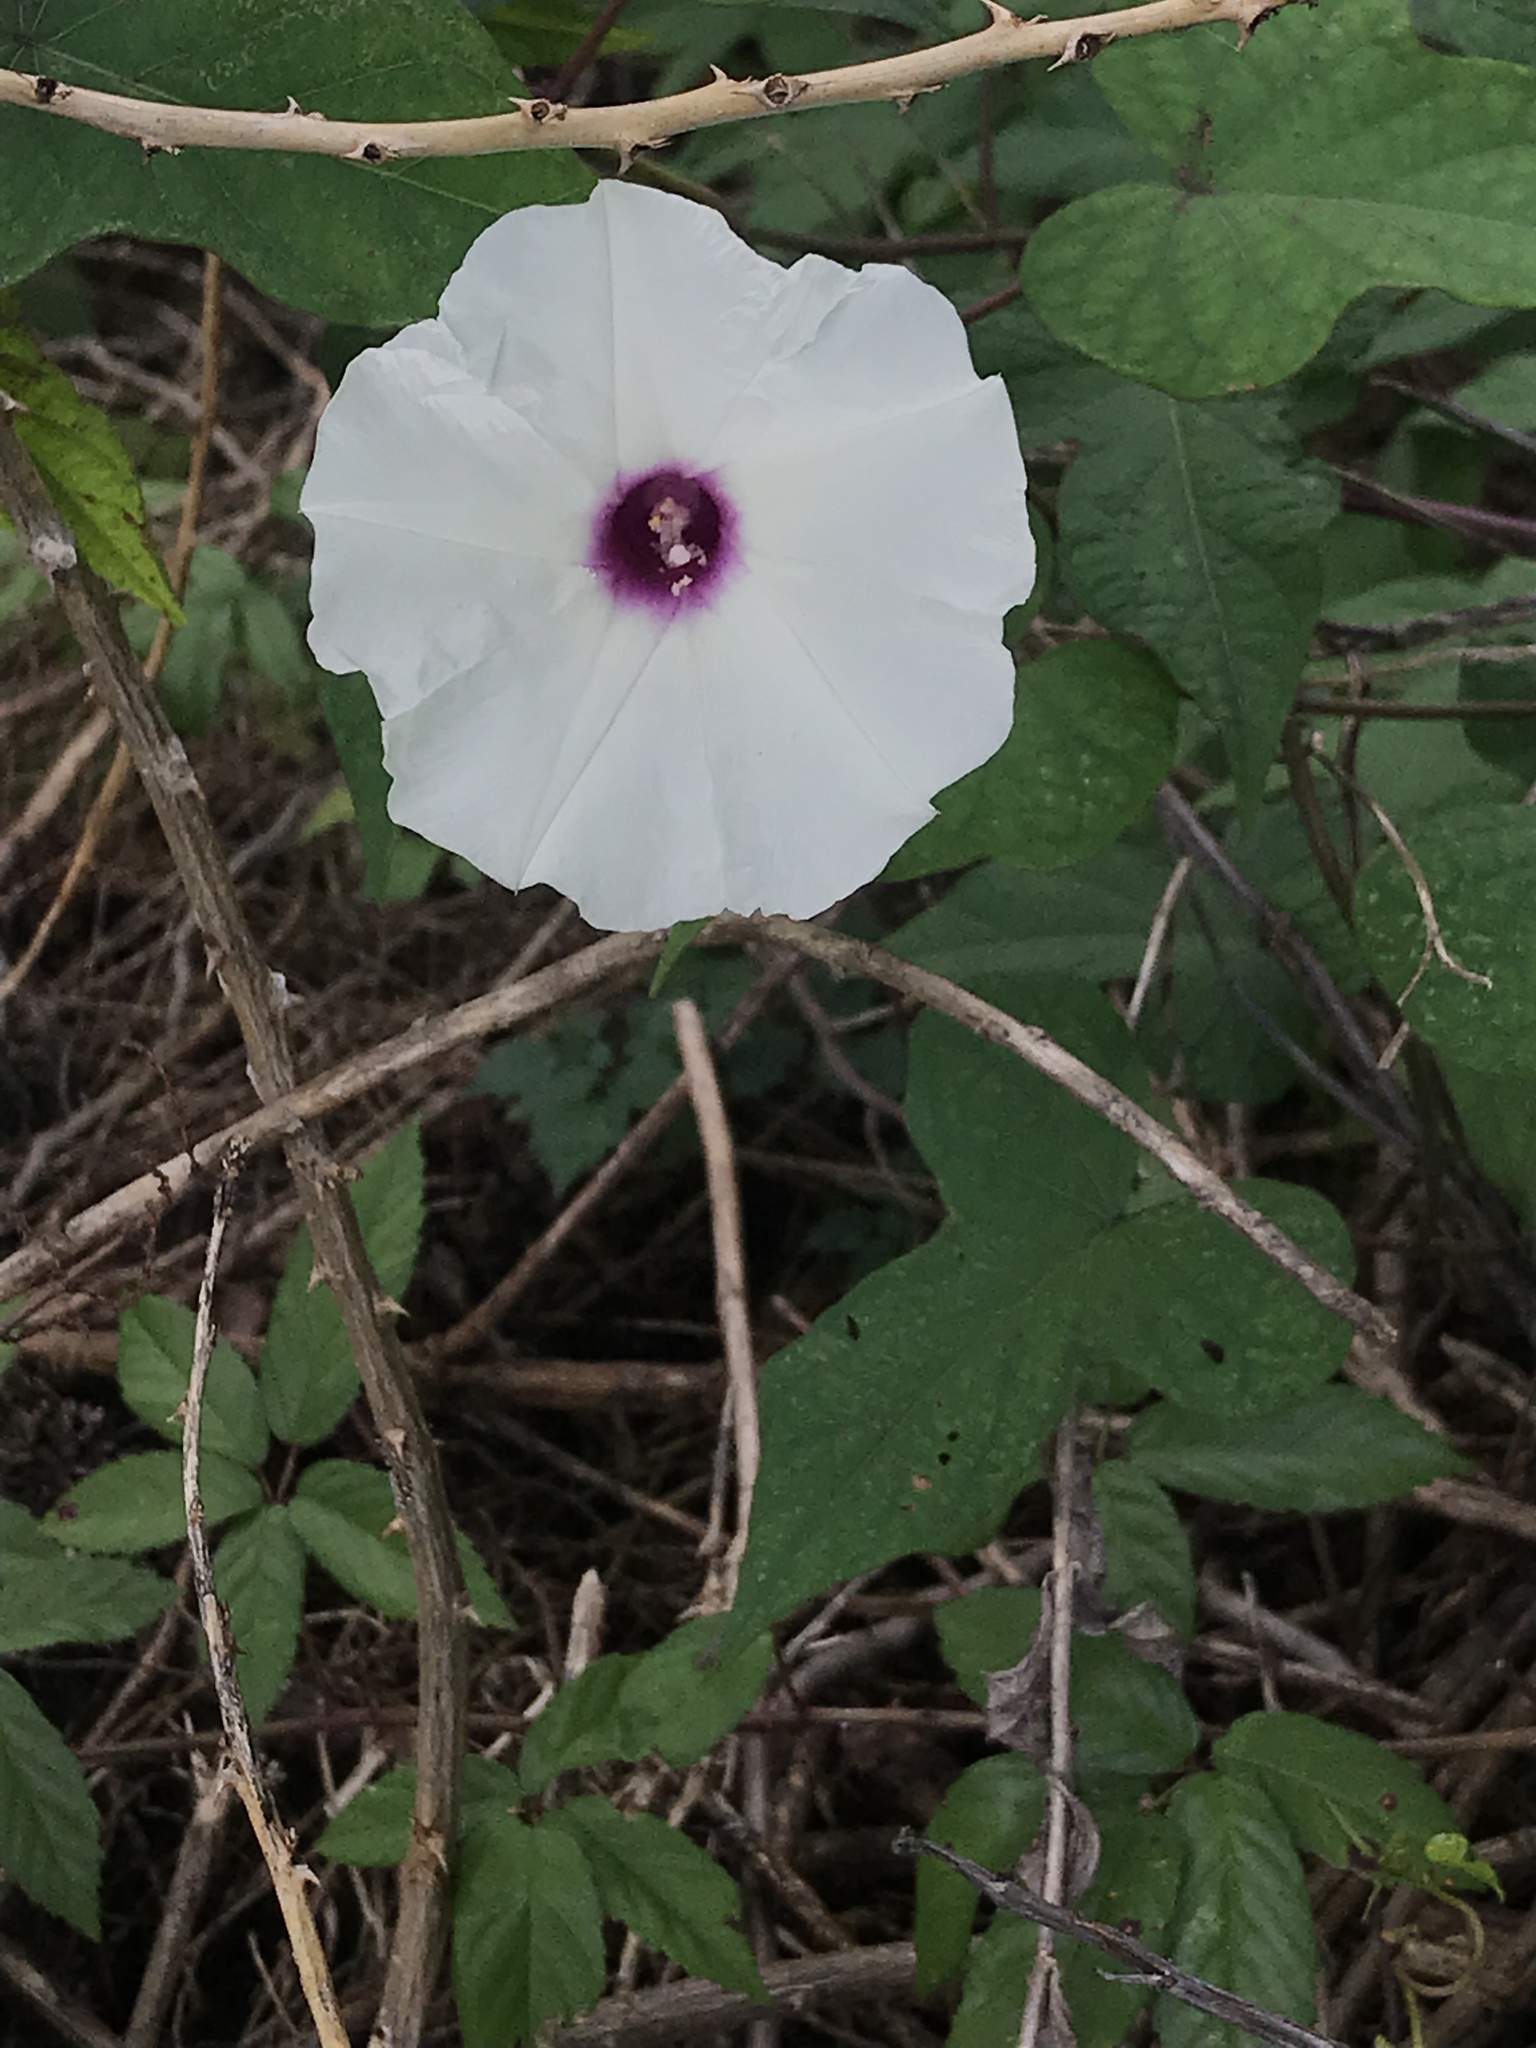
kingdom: Plantae
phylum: Tracheophyta
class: Magnoliopsida
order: Solanales
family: Convolvulaceae
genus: Ipomoea
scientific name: Ipomoea pandurata
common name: Man-of-the-earth
